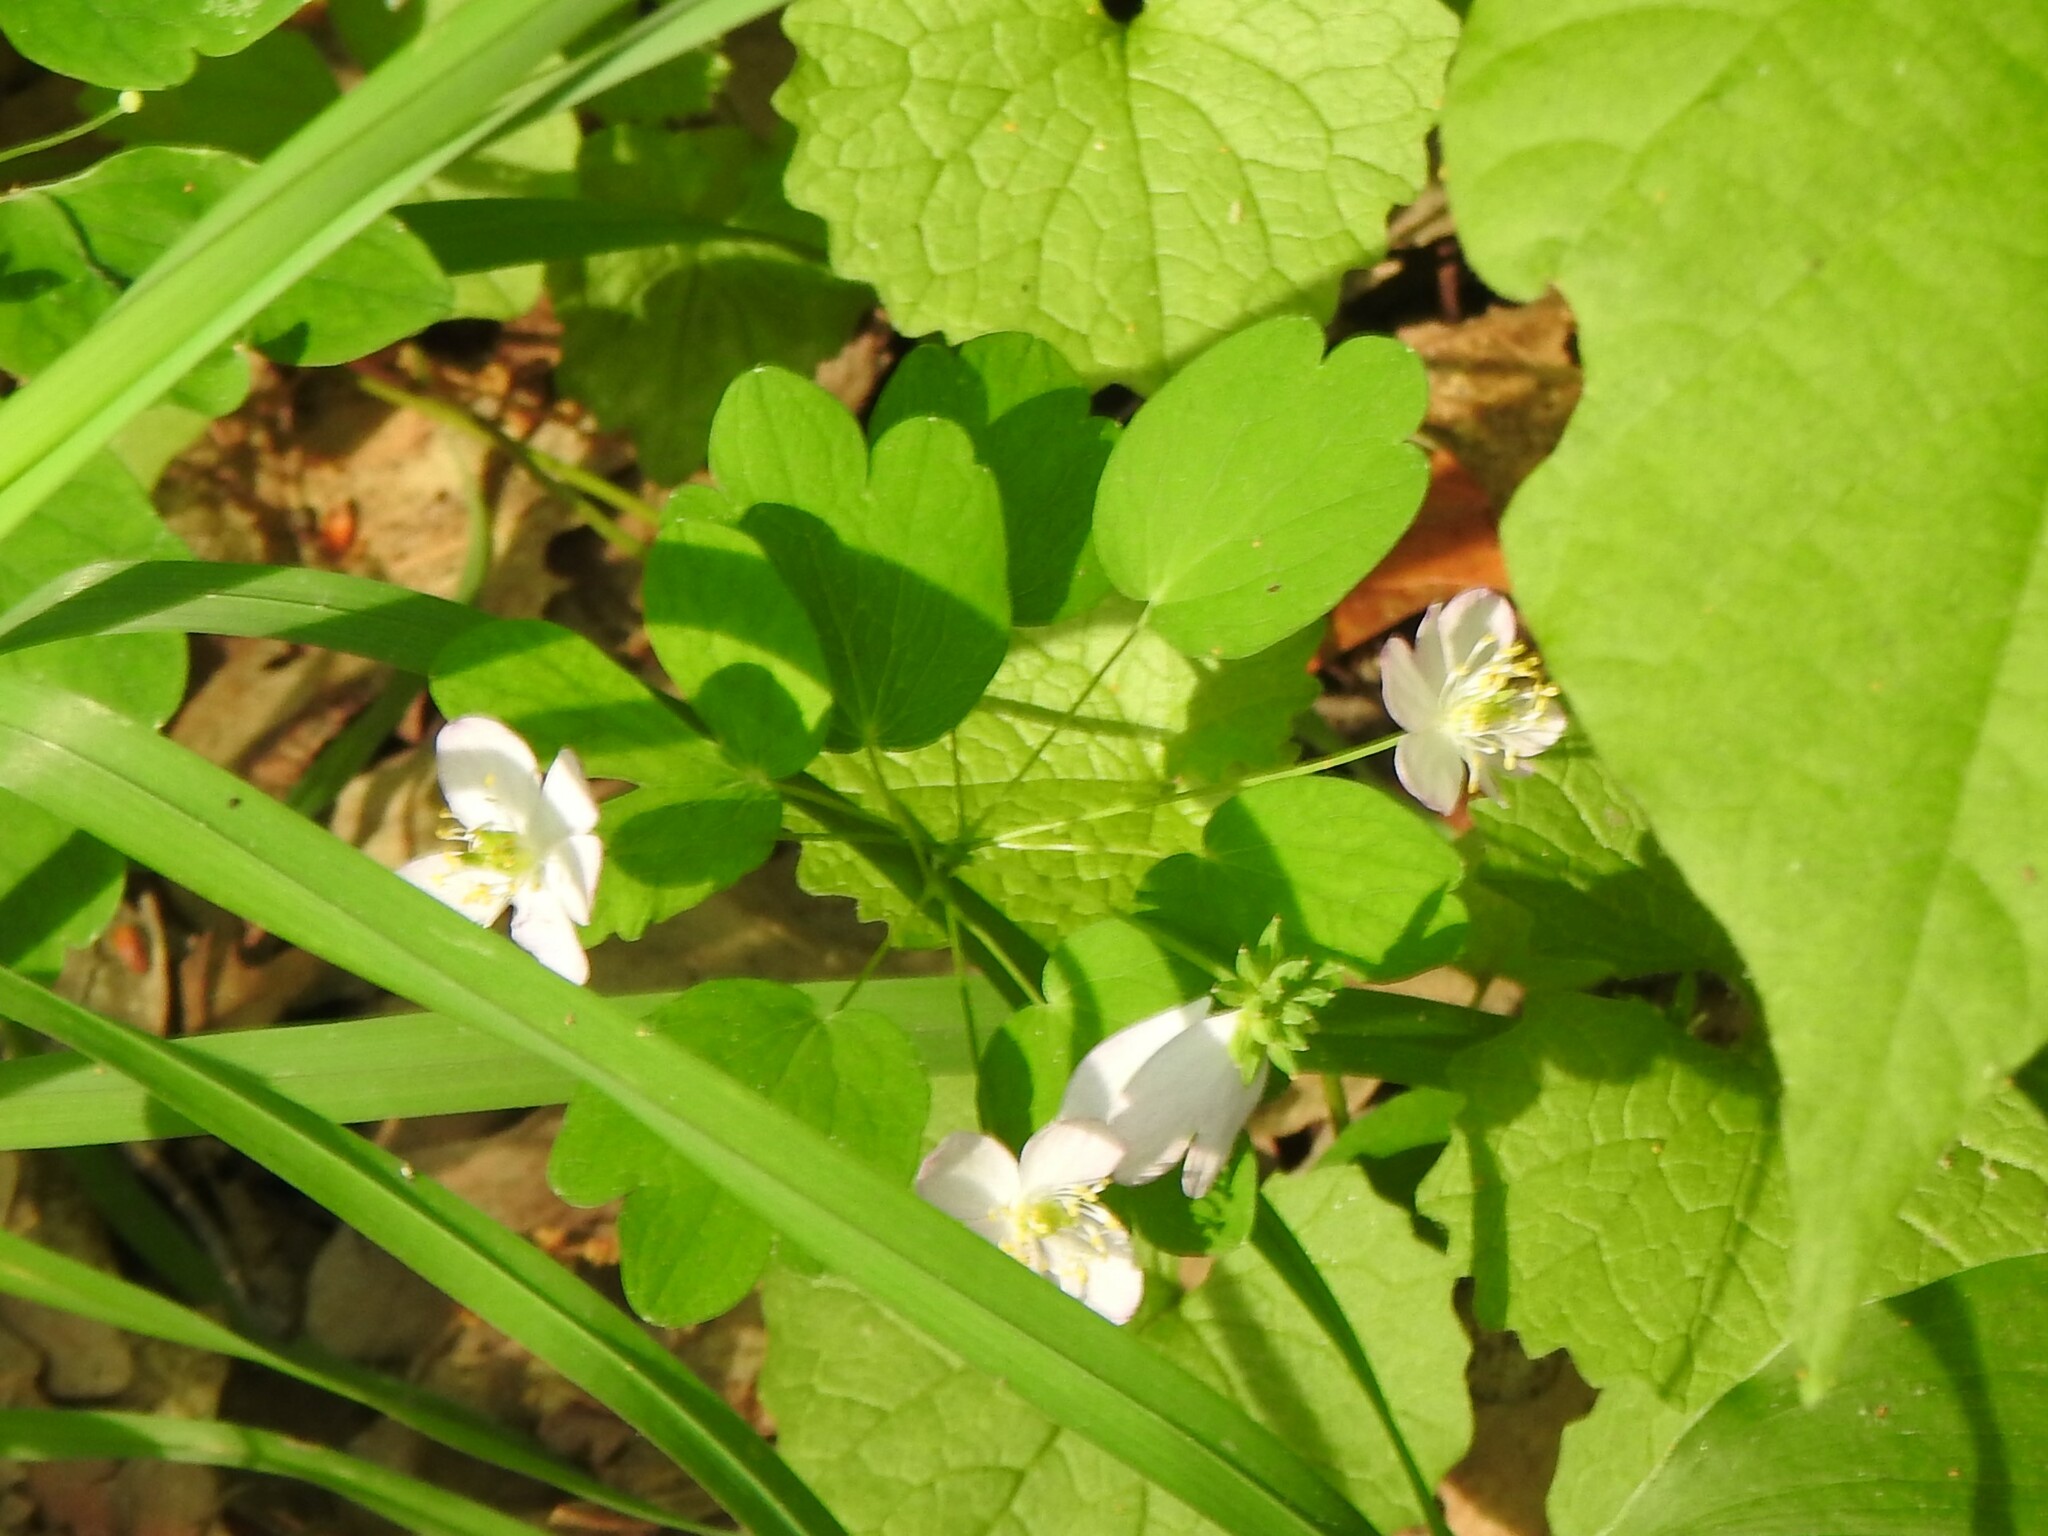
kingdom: Plantae
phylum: Tracheophyta
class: Magnoliopsida
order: Ranunculales
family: Ranunculaceae
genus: Thalictrum
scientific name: Thalictrum thalictroides
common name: Rue-anemone
